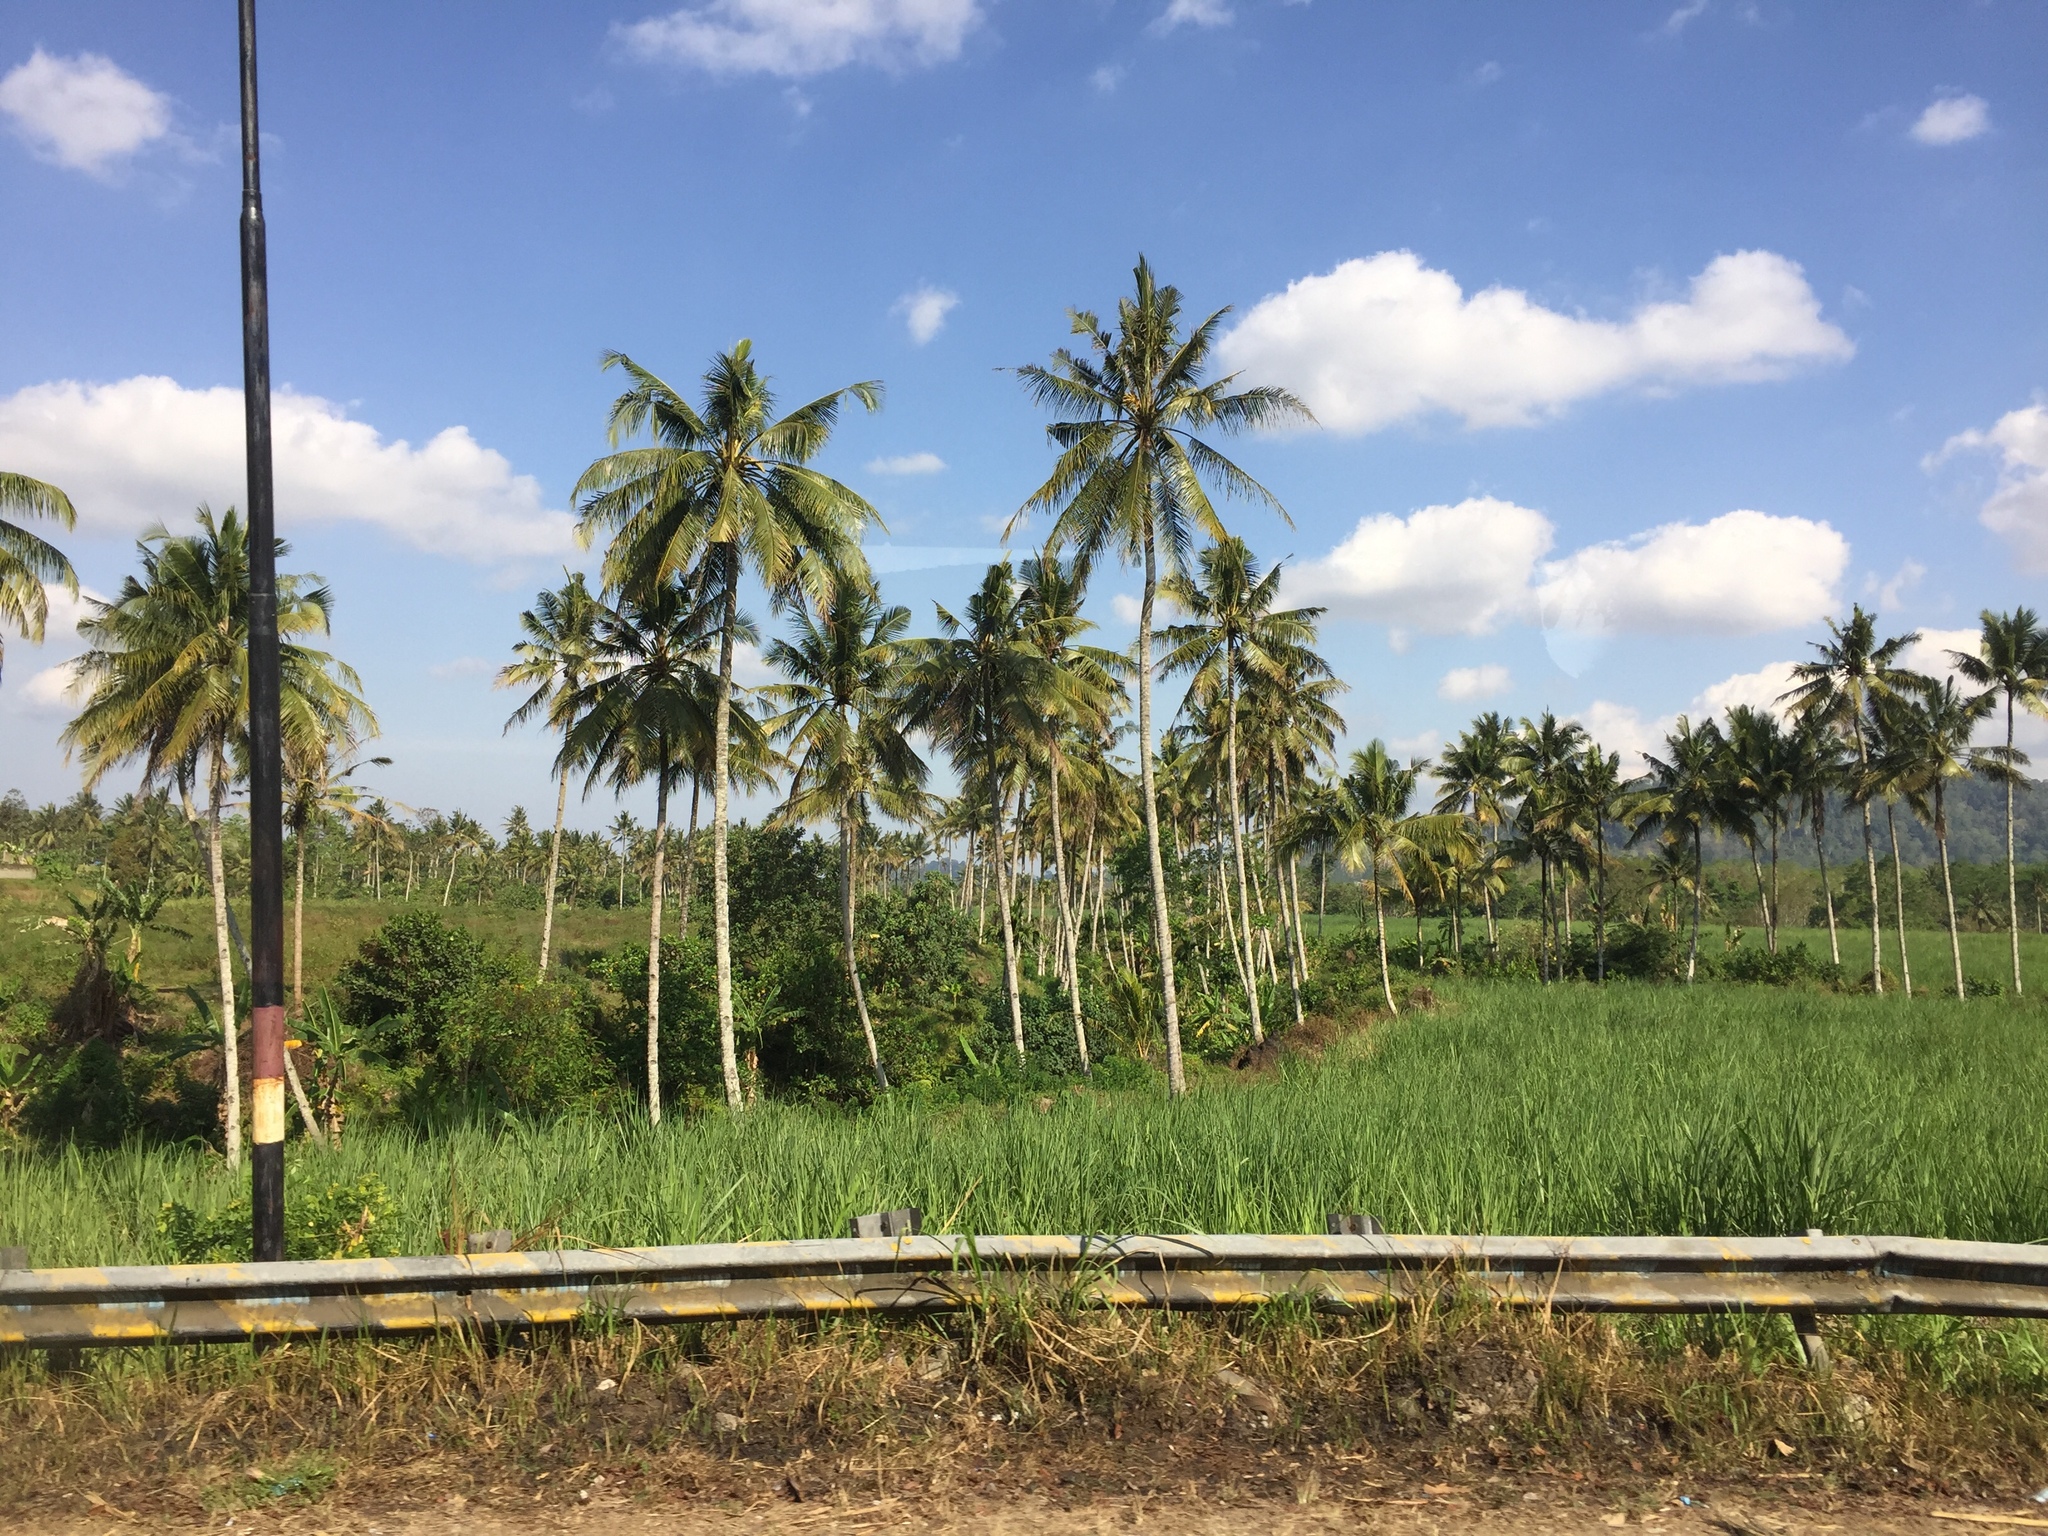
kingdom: Plantae
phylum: Tracheophyta
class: Liliopsida
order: Arecales
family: Arecaceae
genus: Cocos
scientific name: Cocos nucifera
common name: Coconut palm
